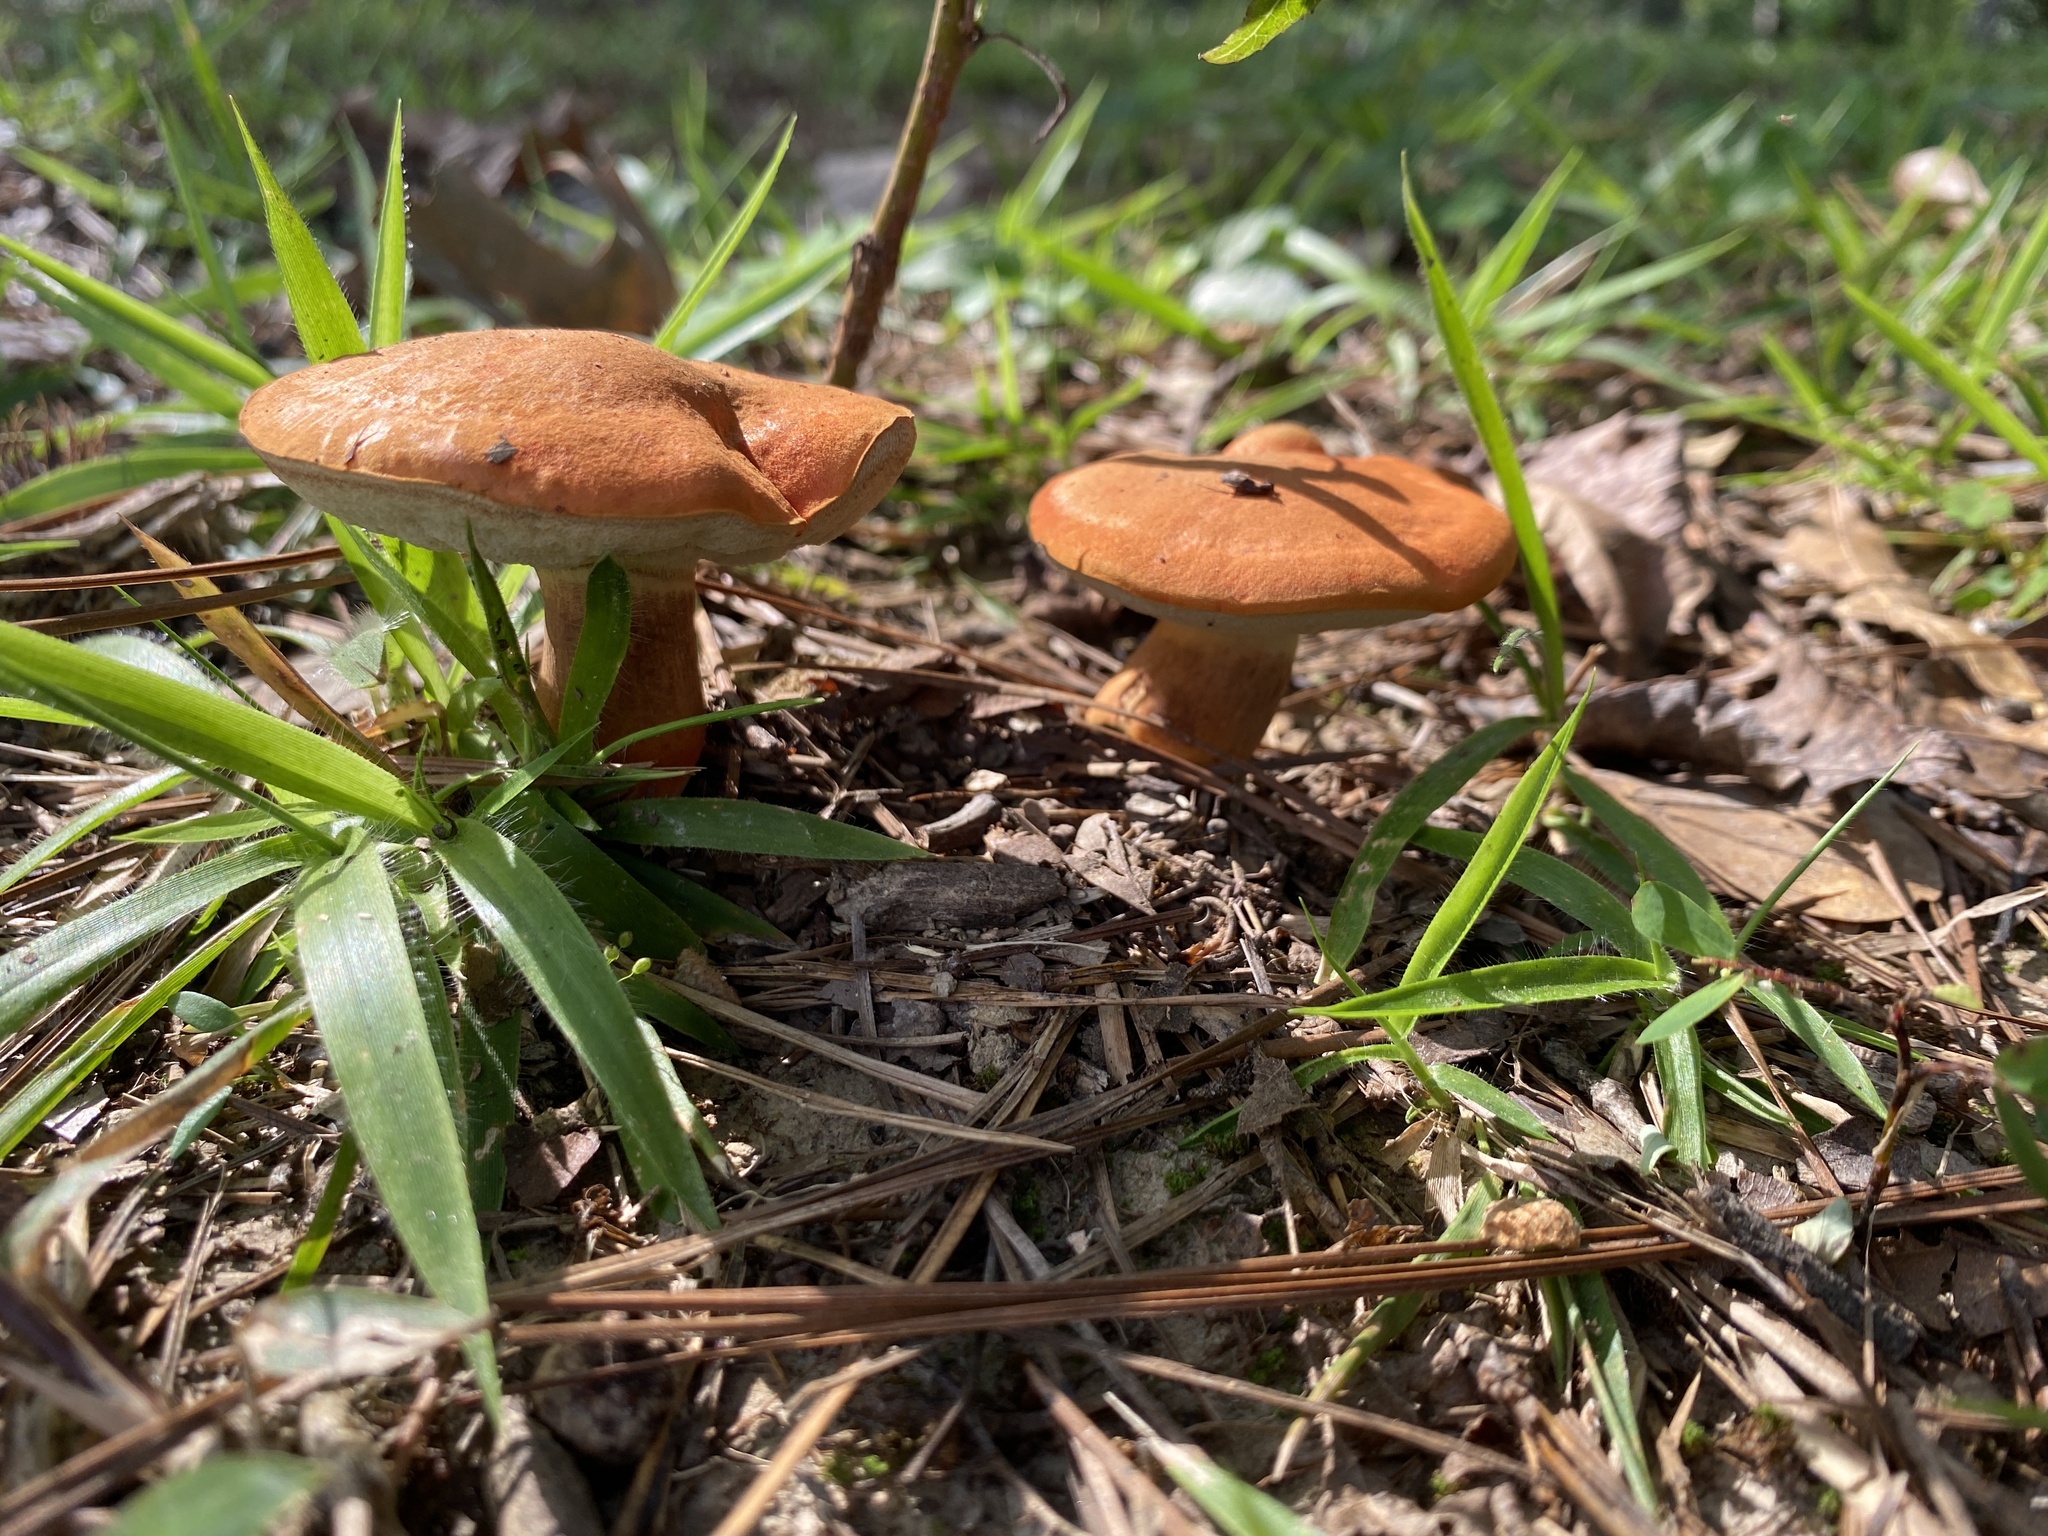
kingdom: Fungi
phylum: Basidiomycota
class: Agaricomycetes
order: Boletales
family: Boletaceae
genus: Tylopilus
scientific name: Tylopilus balloui
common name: Burnt-orange bolete
